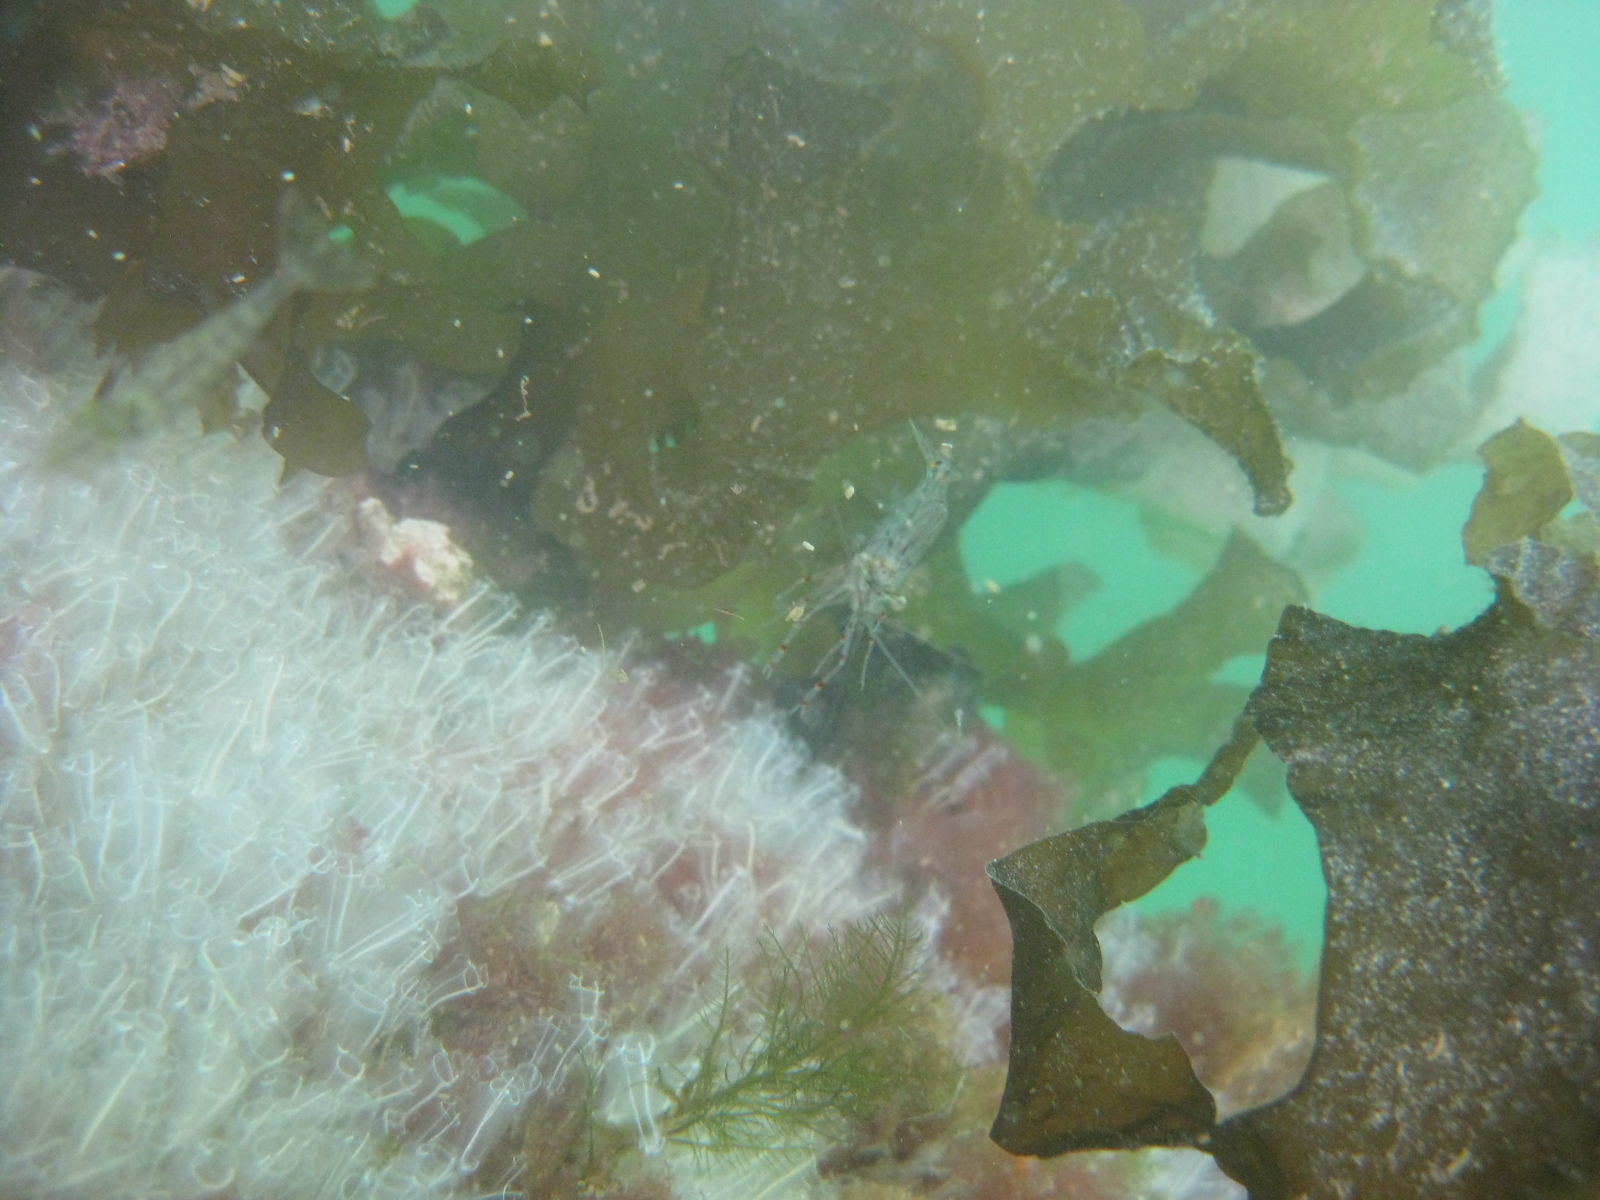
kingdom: Animalia
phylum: Arthropoda
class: Malacostraca
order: Decapoda
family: Palaemonidae
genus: Palaemon
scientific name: Palaemon affinis
